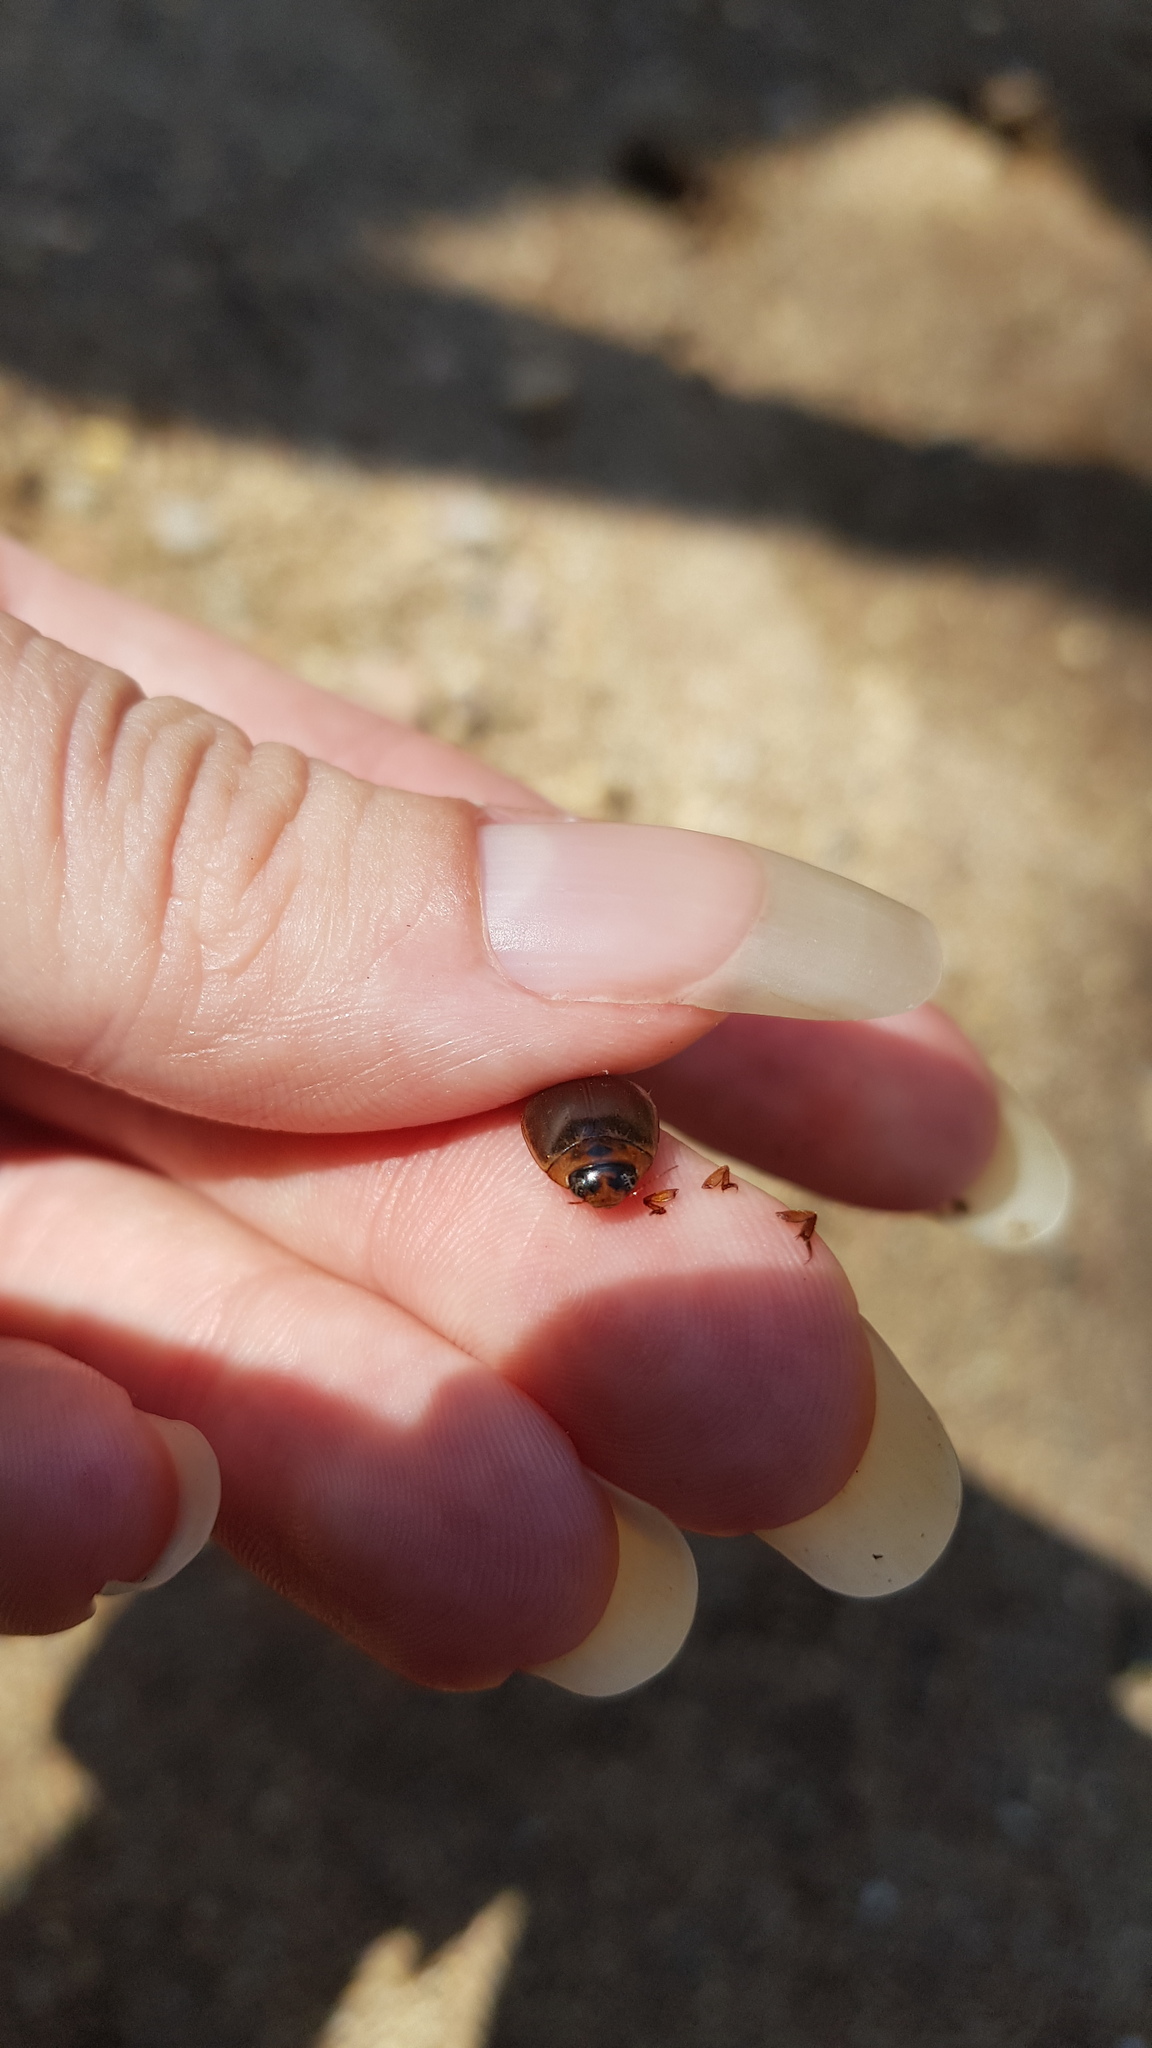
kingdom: Animalia
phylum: Arthropoda
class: Insecta
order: Coleoptera
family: Dytiscidae
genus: Rhantus
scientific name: Rhantus suturalis
